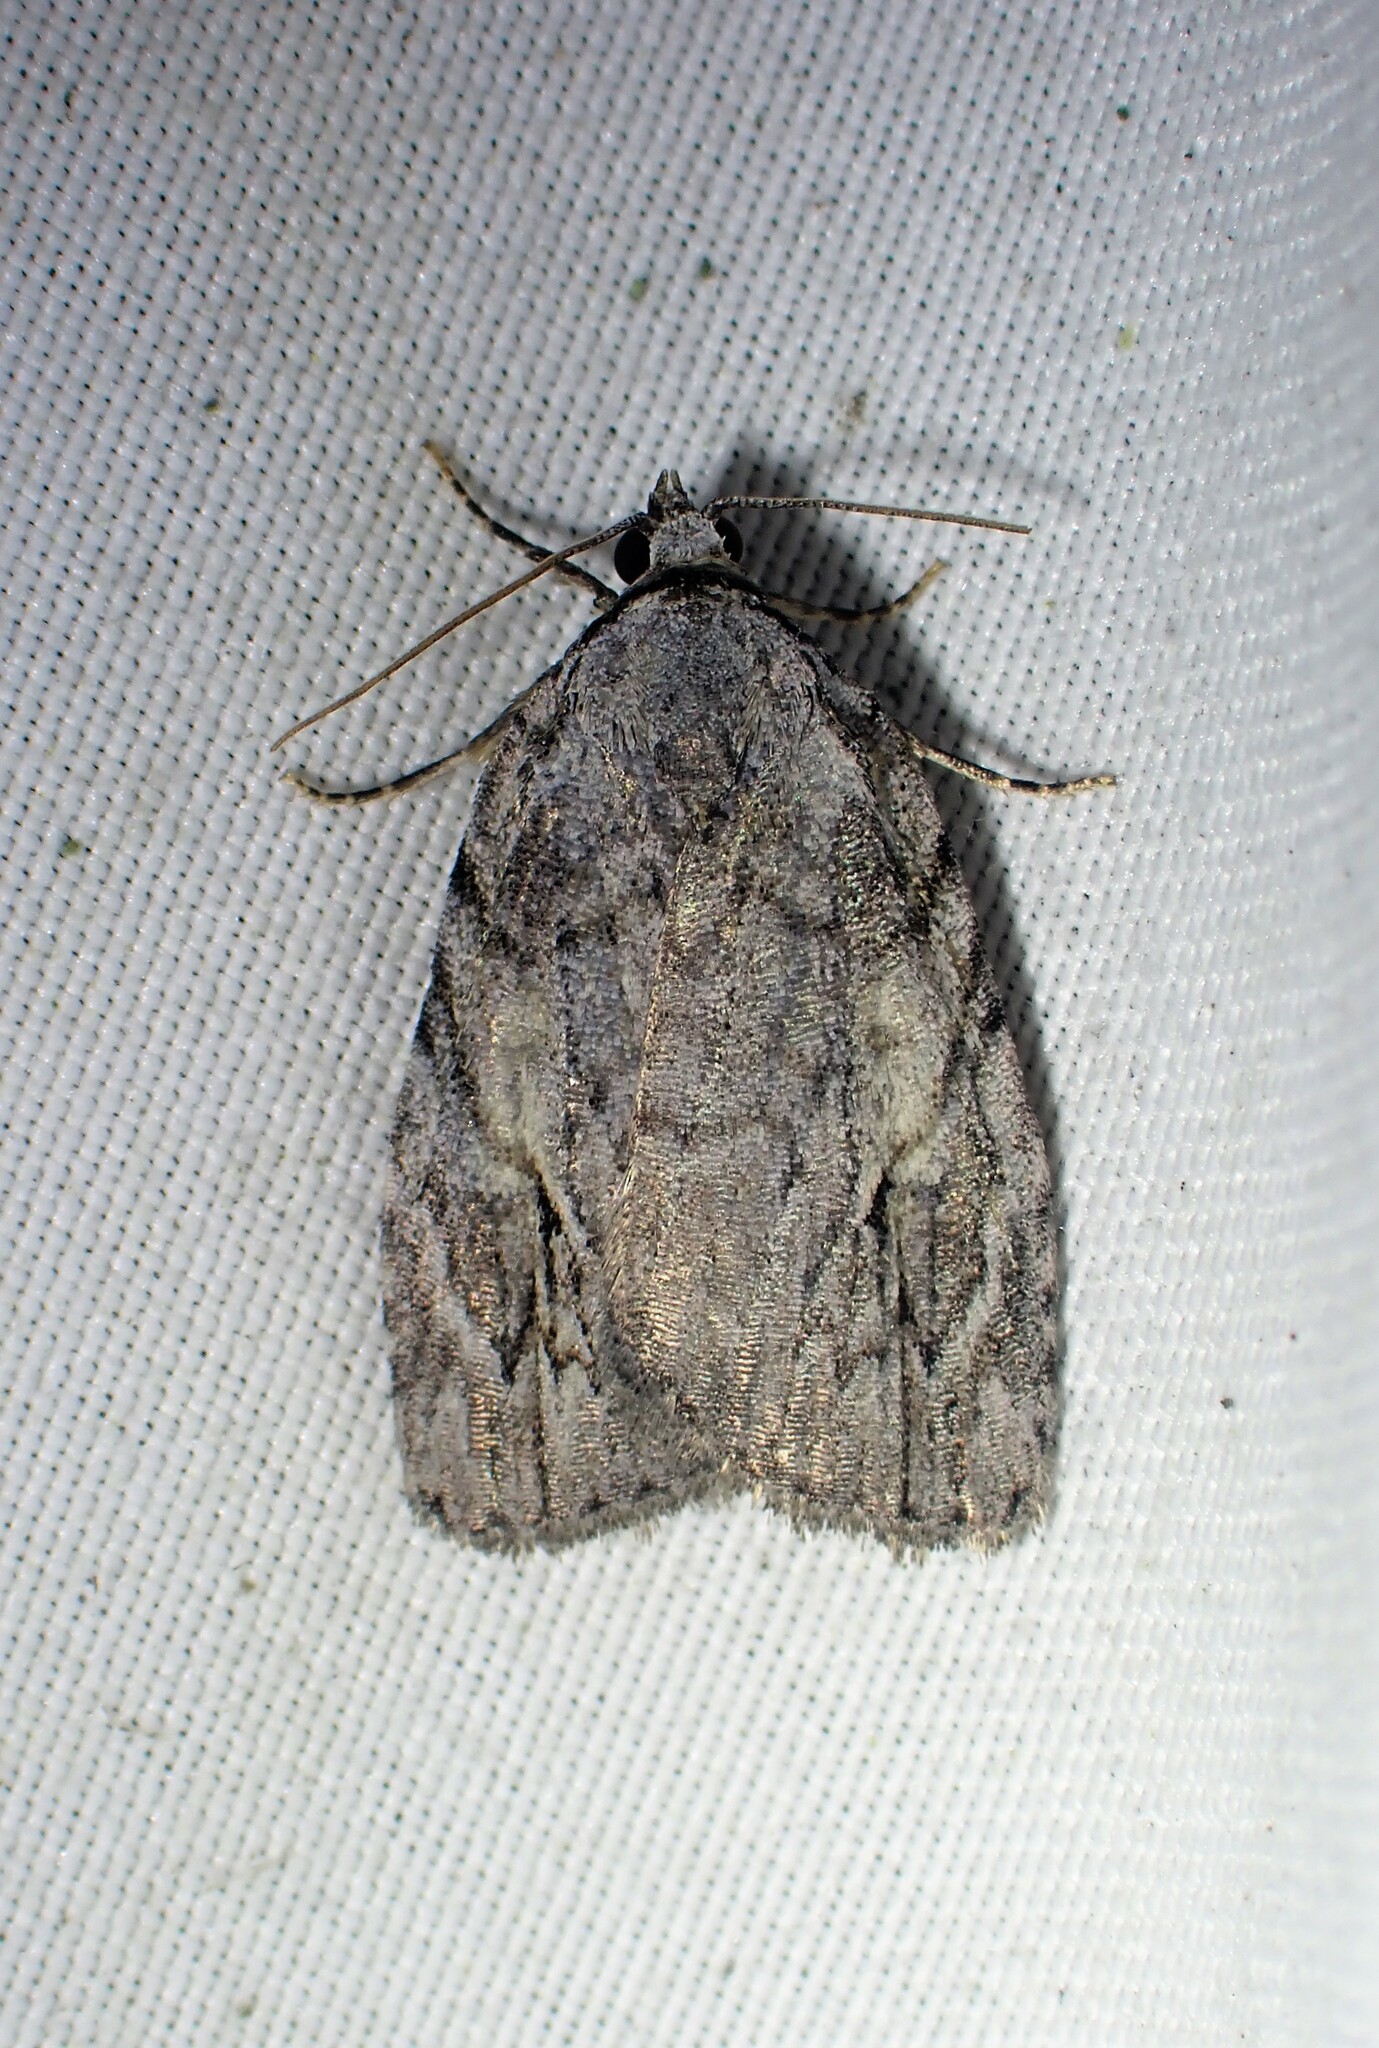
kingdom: Animalia
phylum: Arthropoda
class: Insecta
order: Lepidoptera
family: Noctuidae
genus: Balsa
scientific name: Balsa labecula
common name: White-blotched balsa moth
